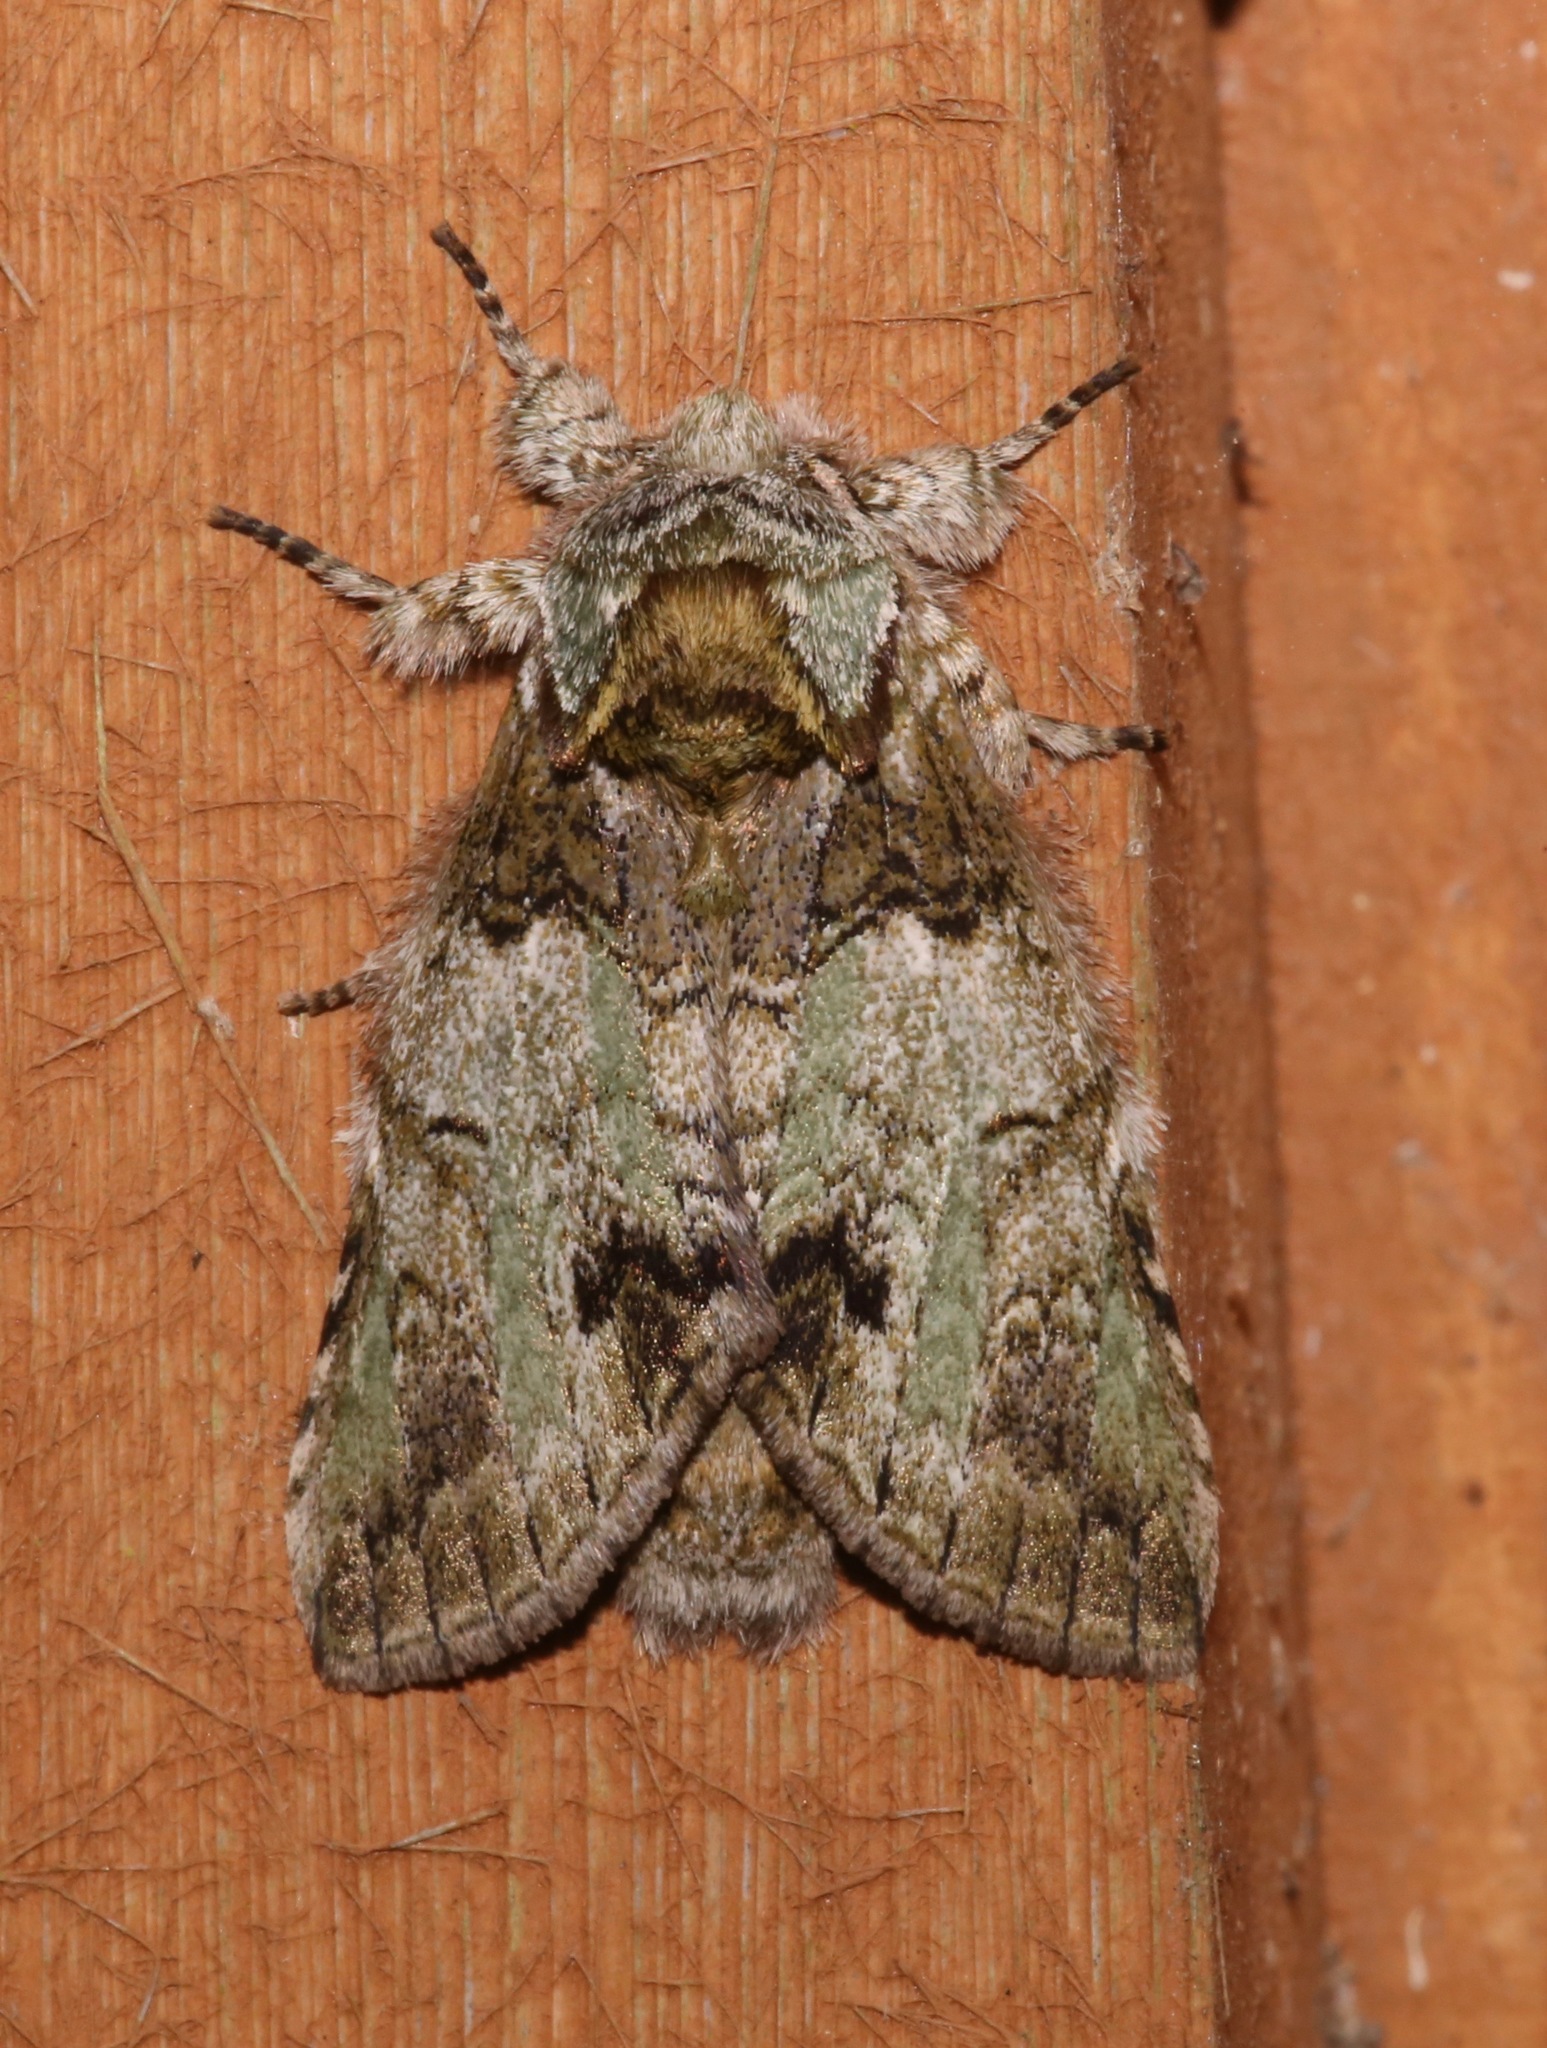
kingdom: Animalia
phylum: Arthropoda
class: Insecta
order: Lepidoptera
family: Notodontidae
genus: Macrurocampa
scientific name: Macrurocampa marthesia
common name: Mottled prominent
